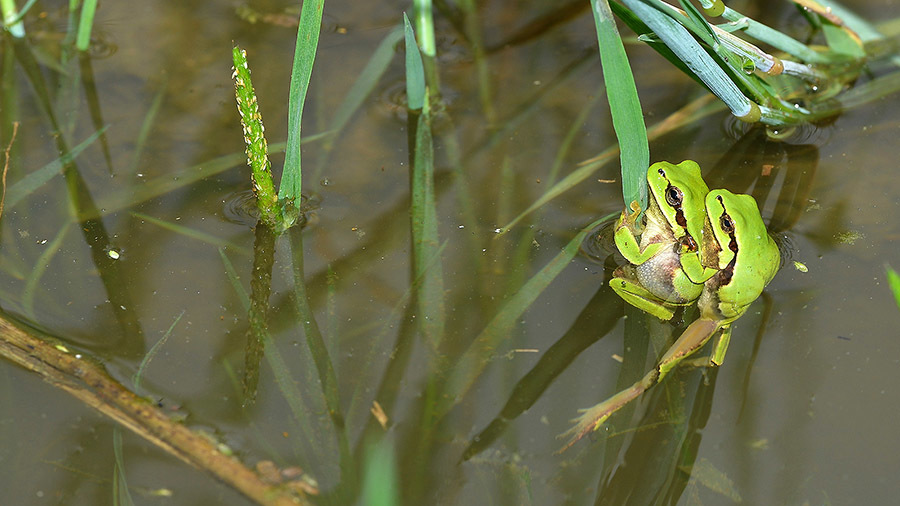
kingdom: Animalia
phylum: Chordata
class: Amphibia
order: Anura
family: Hylidae
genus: Dryophytes
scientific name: Dryophytes immaculatus
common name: North china treefrog
